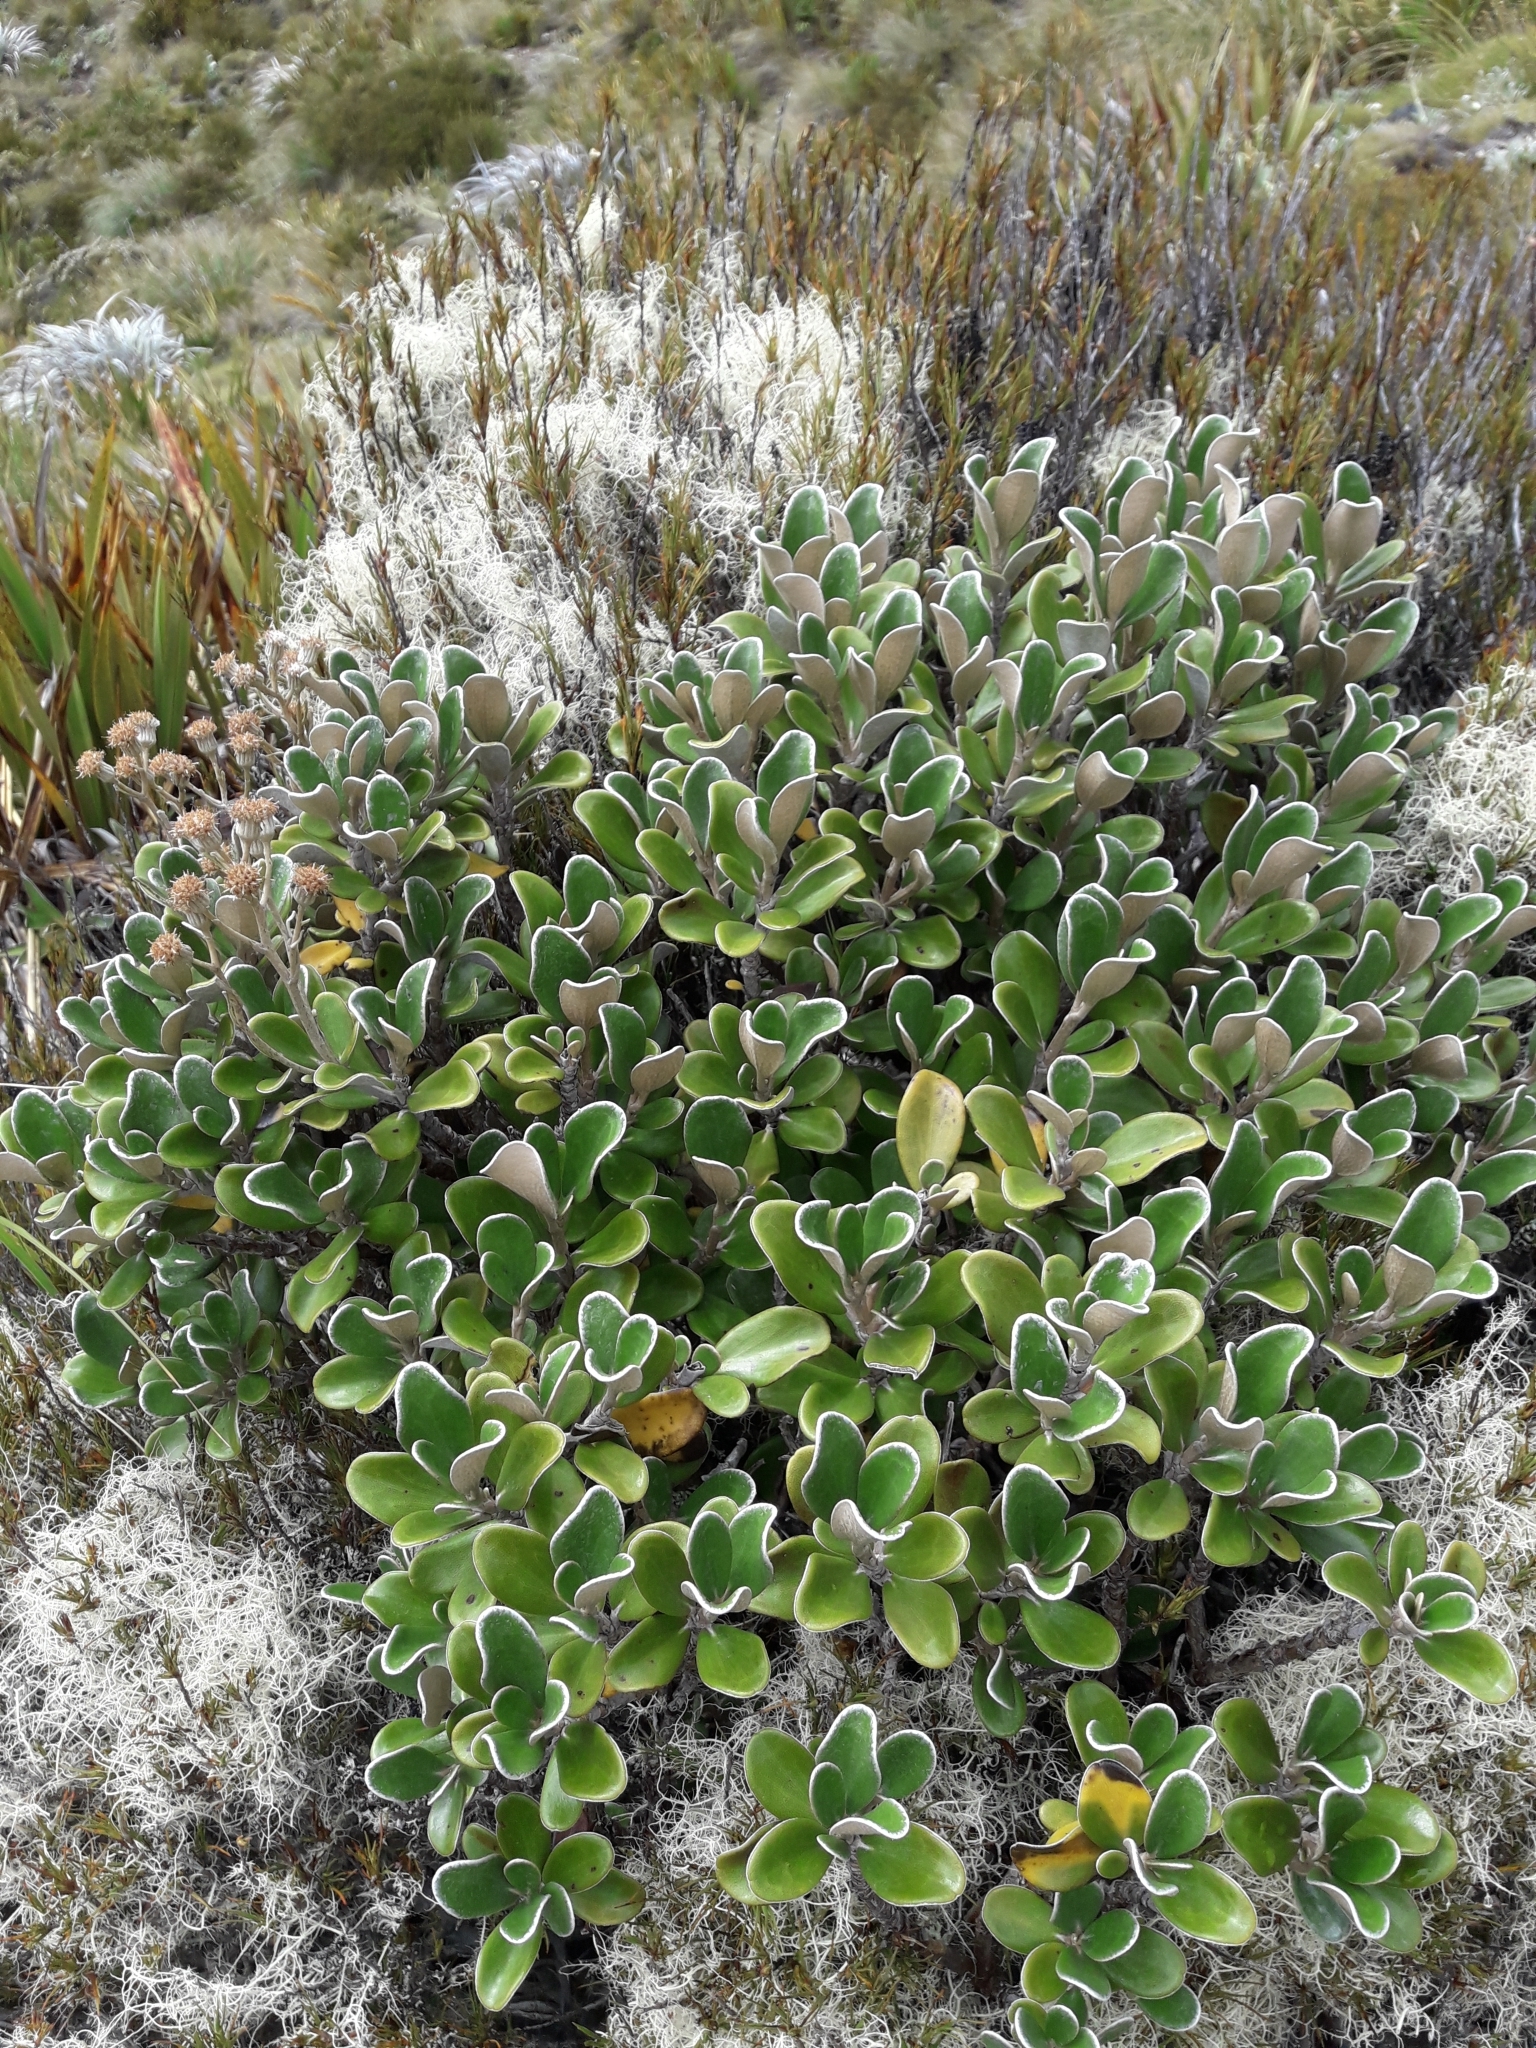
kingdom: Plantae
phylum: Tracheophyta
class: Magnoliopsida
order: Asterales
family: Asteraceae
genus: Brachyglottis
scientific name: Brachyglottis bidwillii
